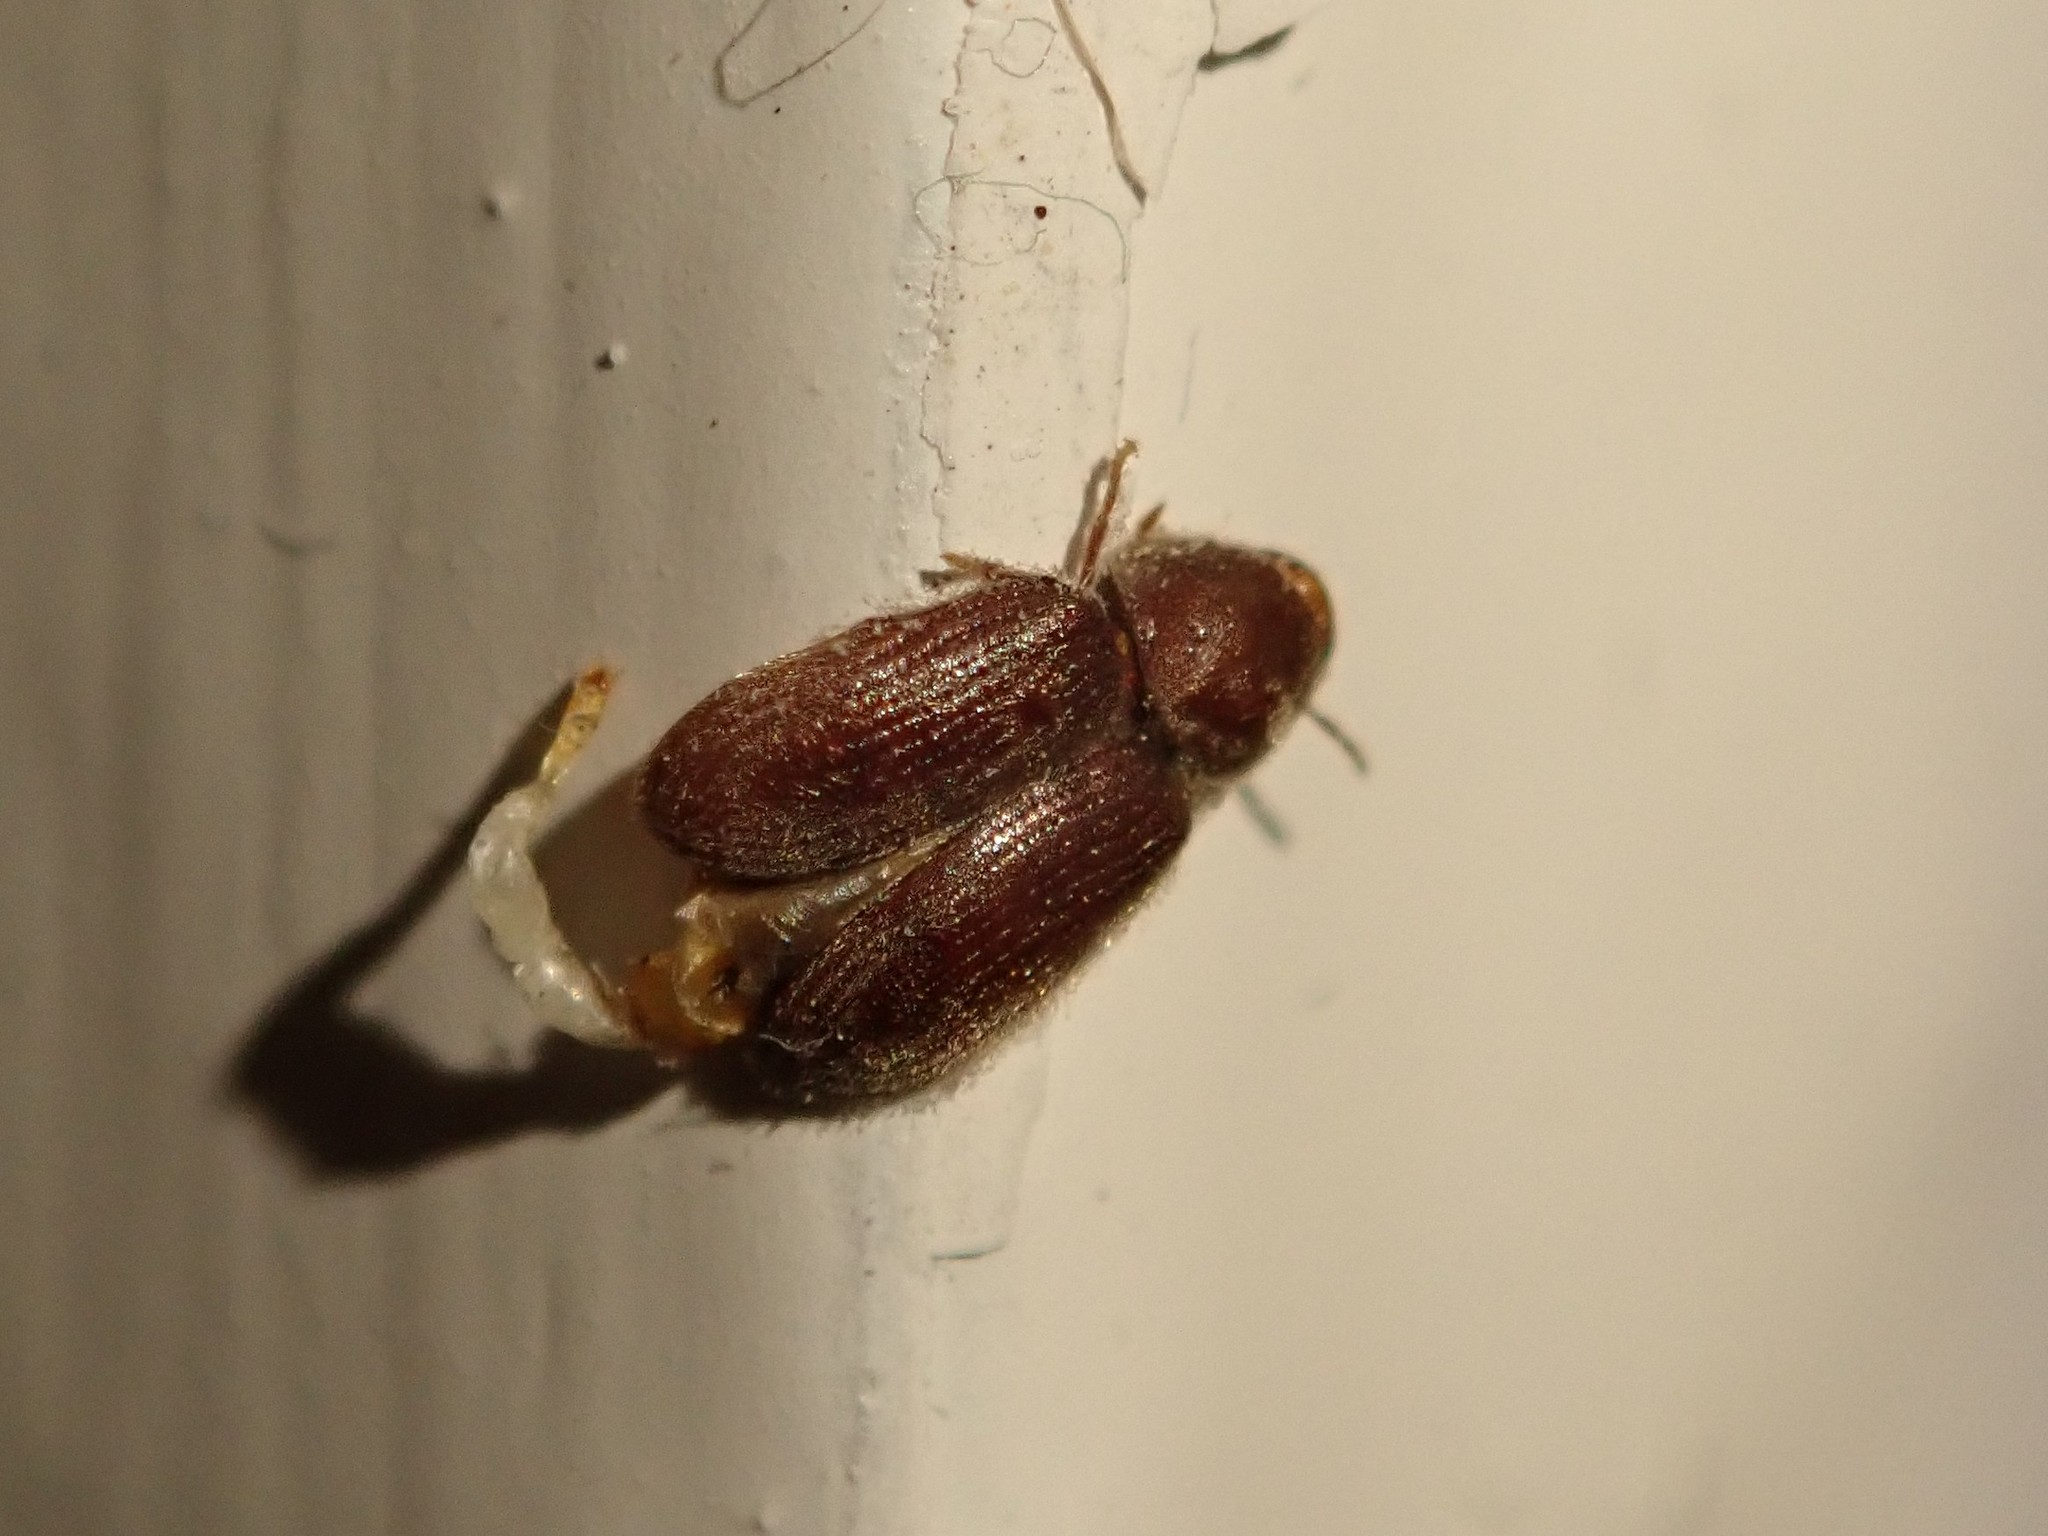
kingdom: Animalia
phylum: Arthropoda
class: Insecta
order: Coleoptera
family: Anobiidae
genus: Stegobium
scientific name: Stegobium paniceum
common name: Drugstore beetle
